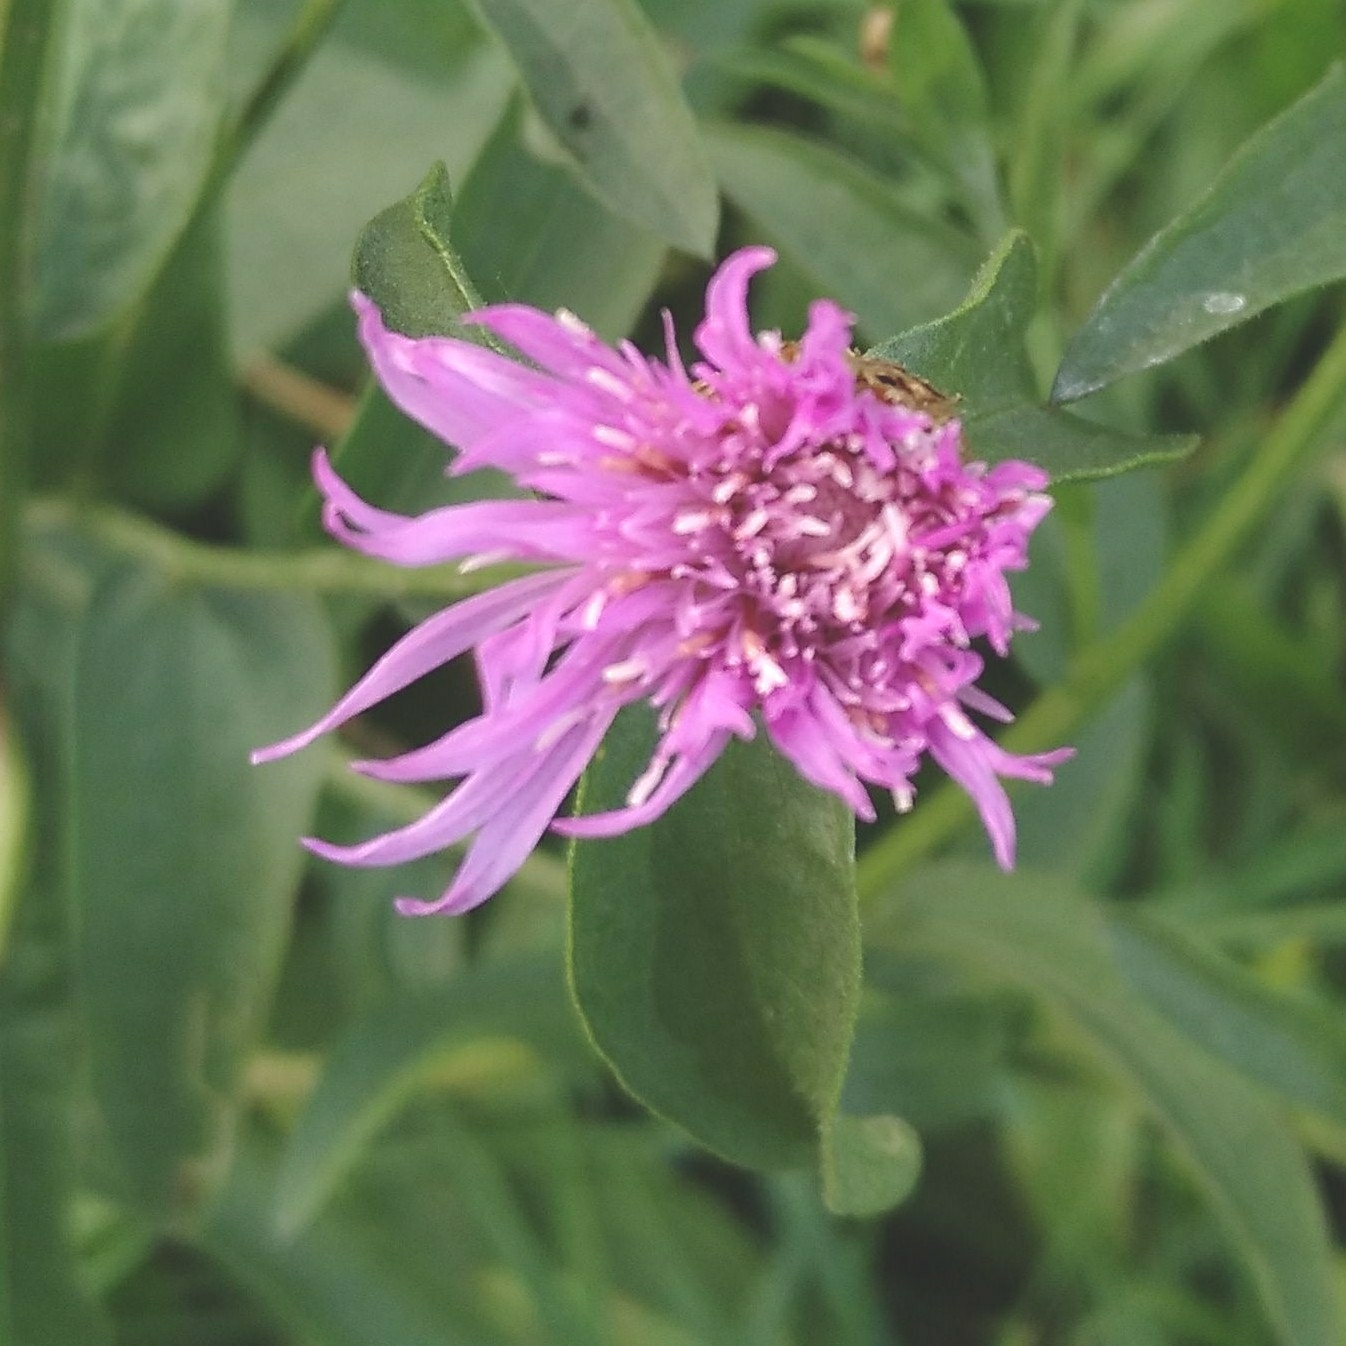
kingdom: Plantae
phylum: Tracheophyta
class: Magnoliopsida
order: Asterales
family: Asteraceae
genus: Centaurea
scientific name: Centaurea jacea
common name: Brown knapweed
